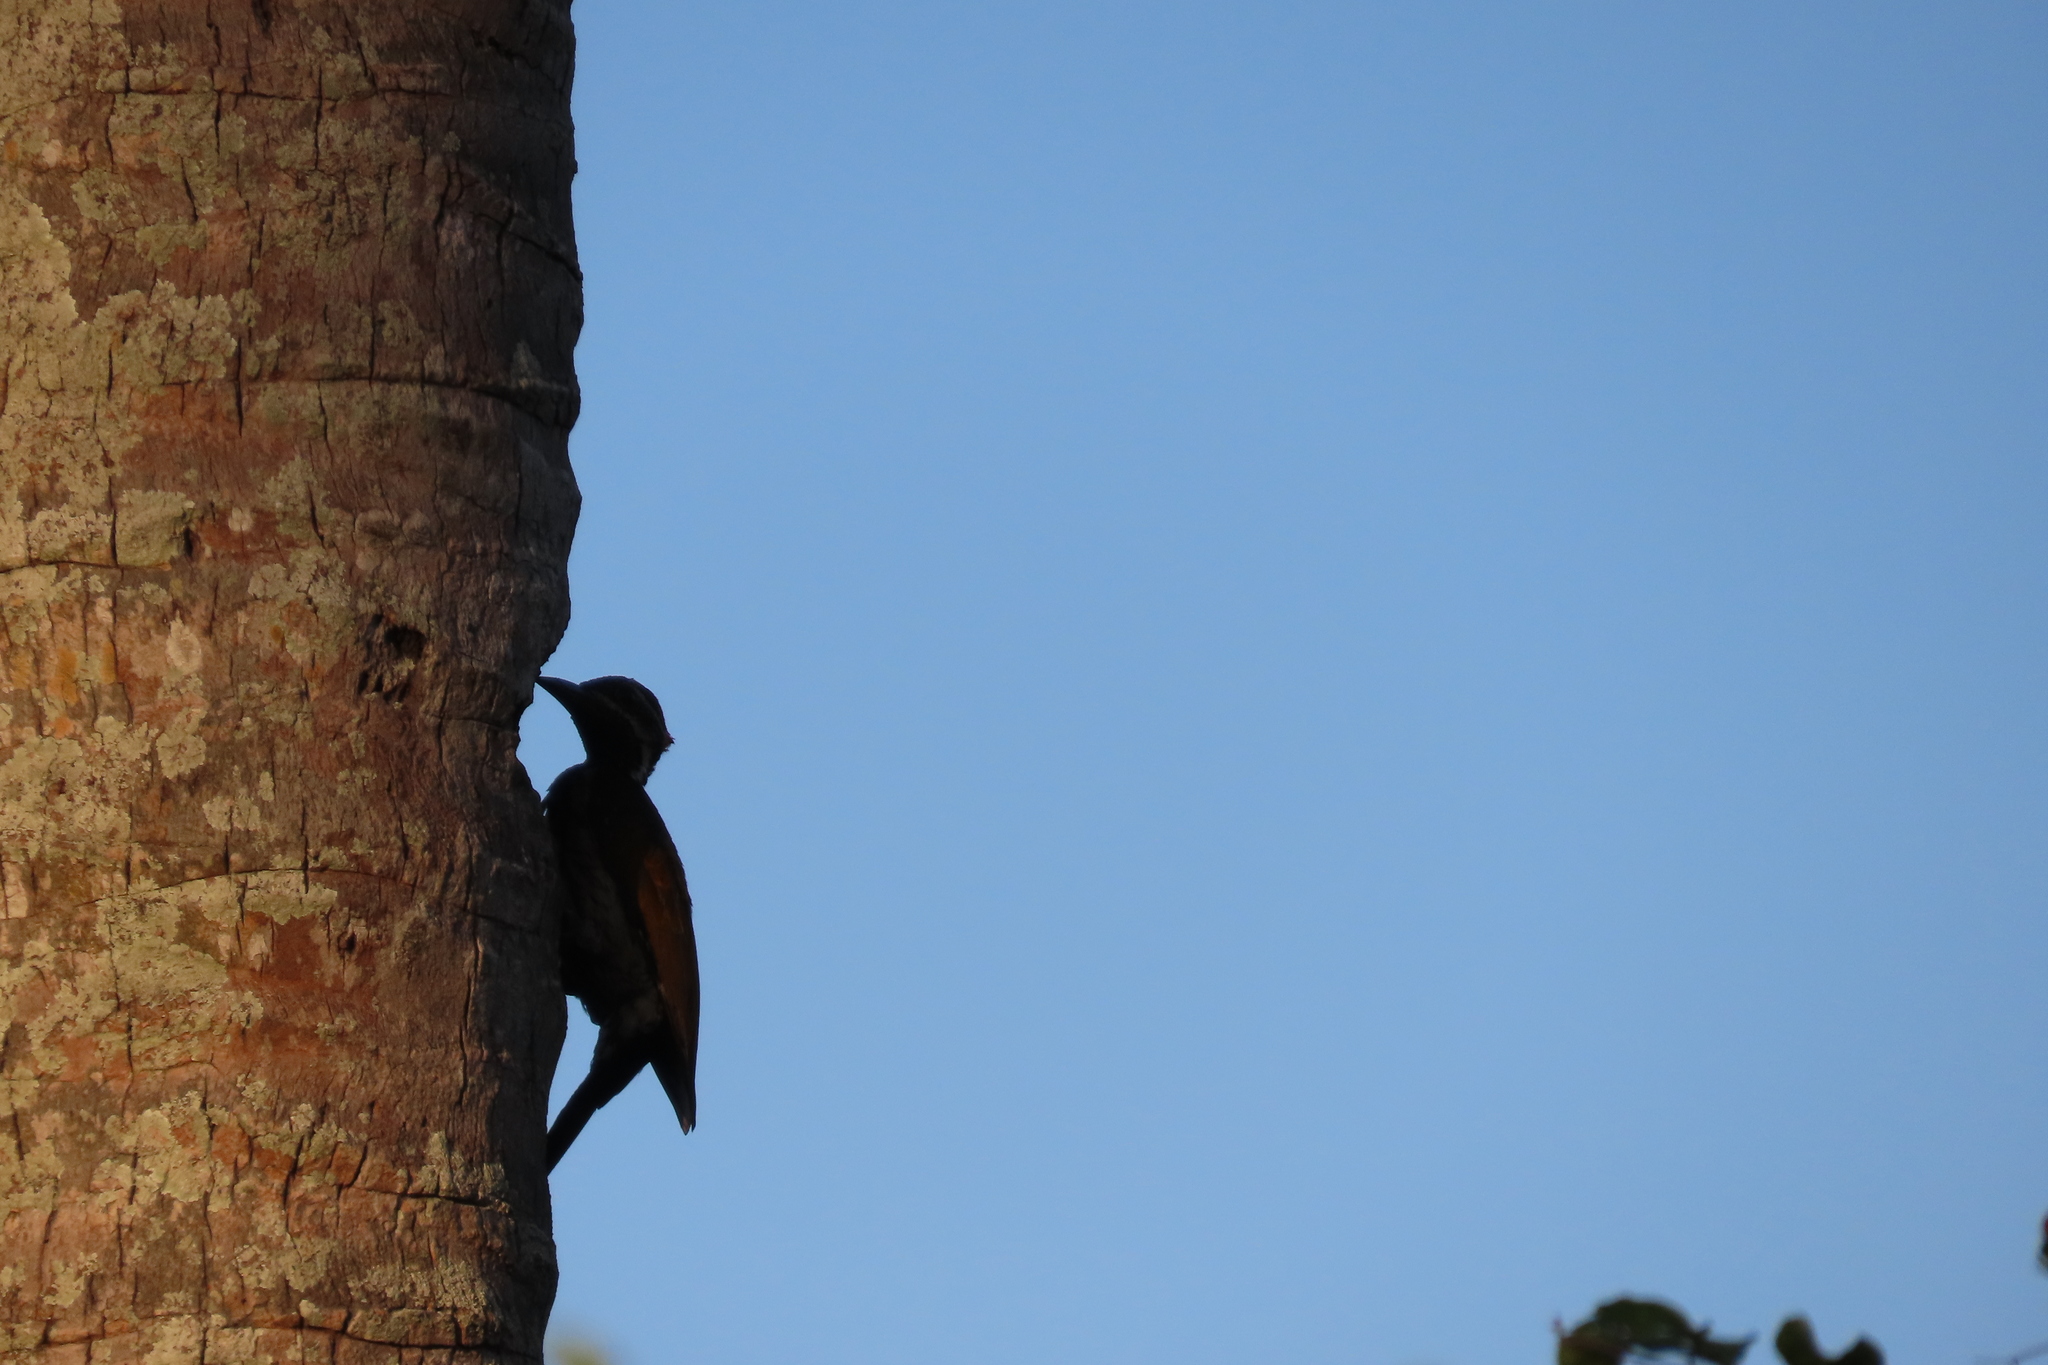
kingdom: Animalia
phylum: Chordata
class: Aves
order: Piciformes
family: Picidae
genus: Dinopium
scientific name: Dinopium benghalense
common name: Black-rumped flameback
